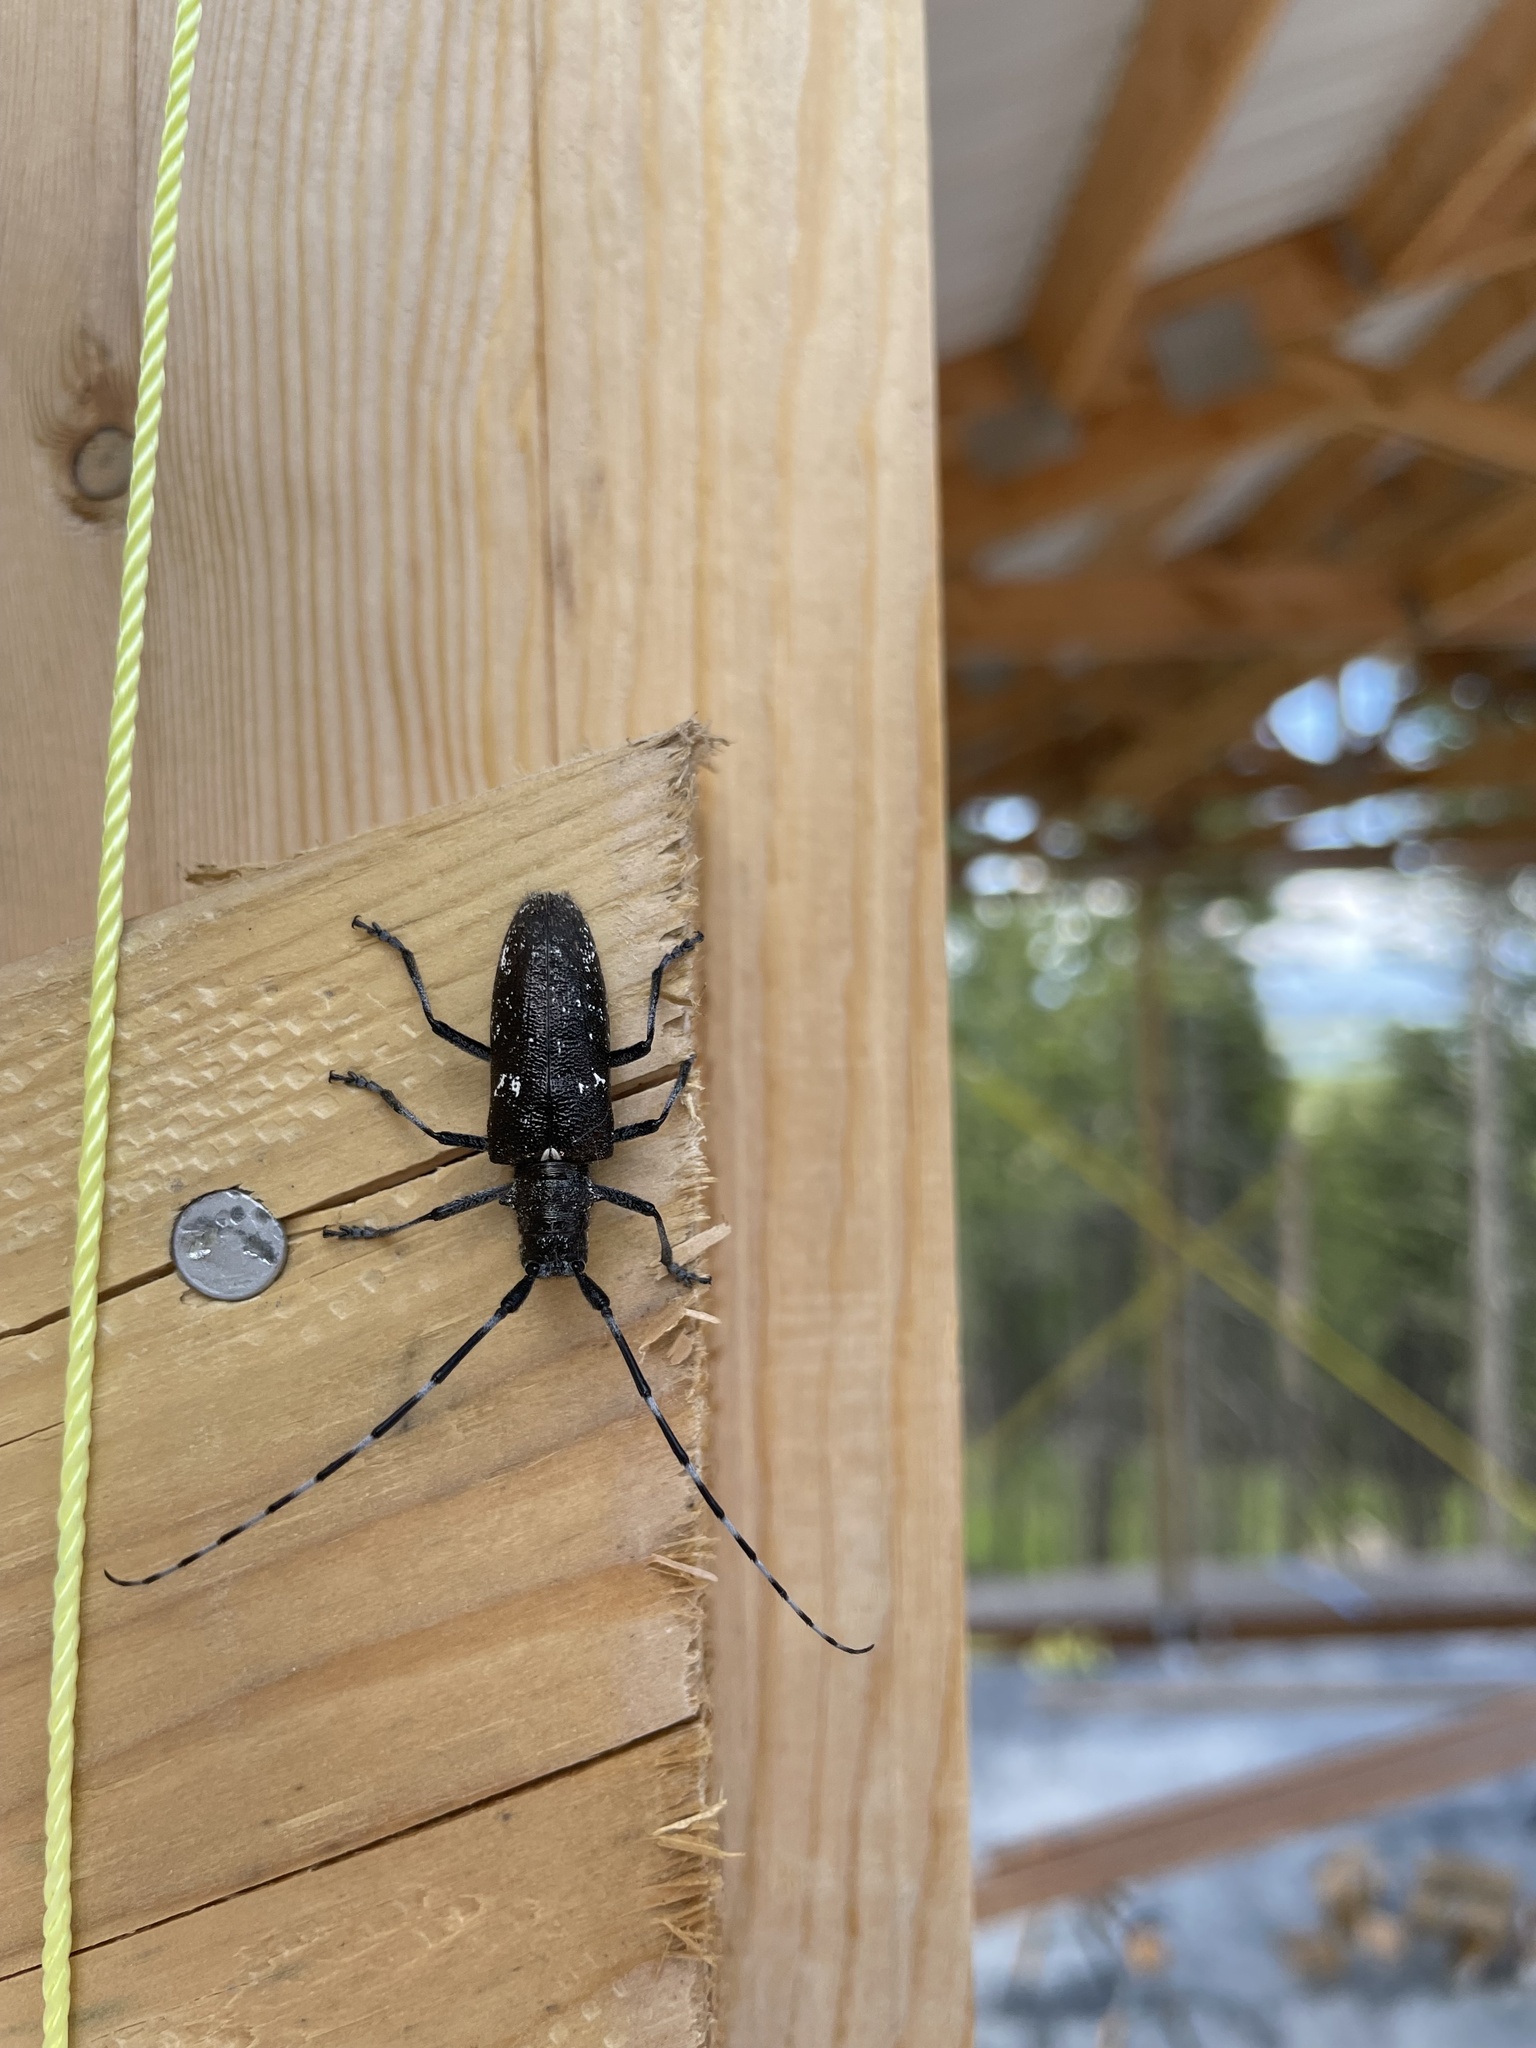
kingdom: Animalia
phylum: Arthropoda
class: Insecta
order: Coleoptera
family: Cerambycidae
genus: Monochamus
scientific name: Monochamus scutellatus
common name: White-spotted sawyer beetle
